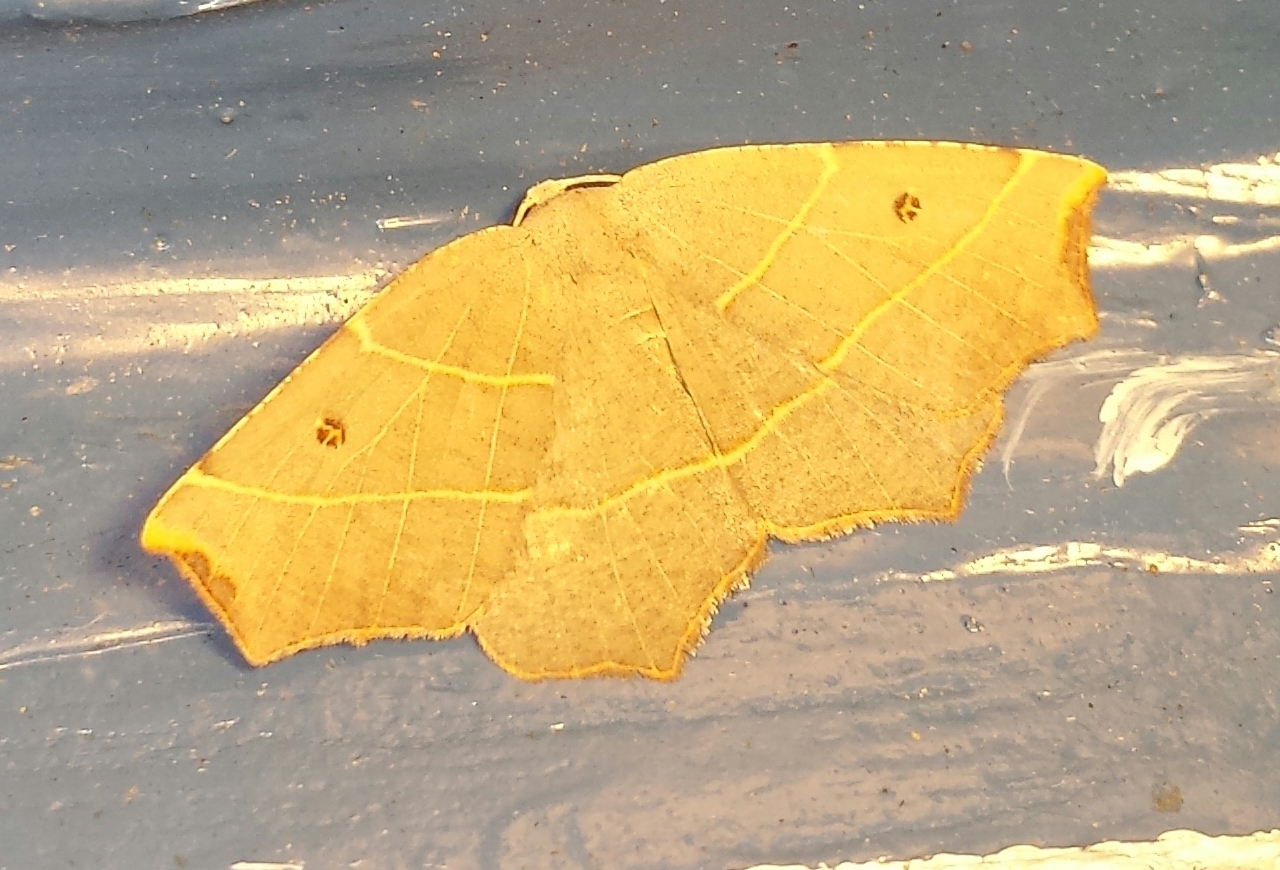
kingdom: Animalia
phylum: Arthropoda
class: Insecta
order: Lepidoptera
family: Geometridae
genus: Metanema
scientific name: Metanema inatomaria
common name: Pale metanema
